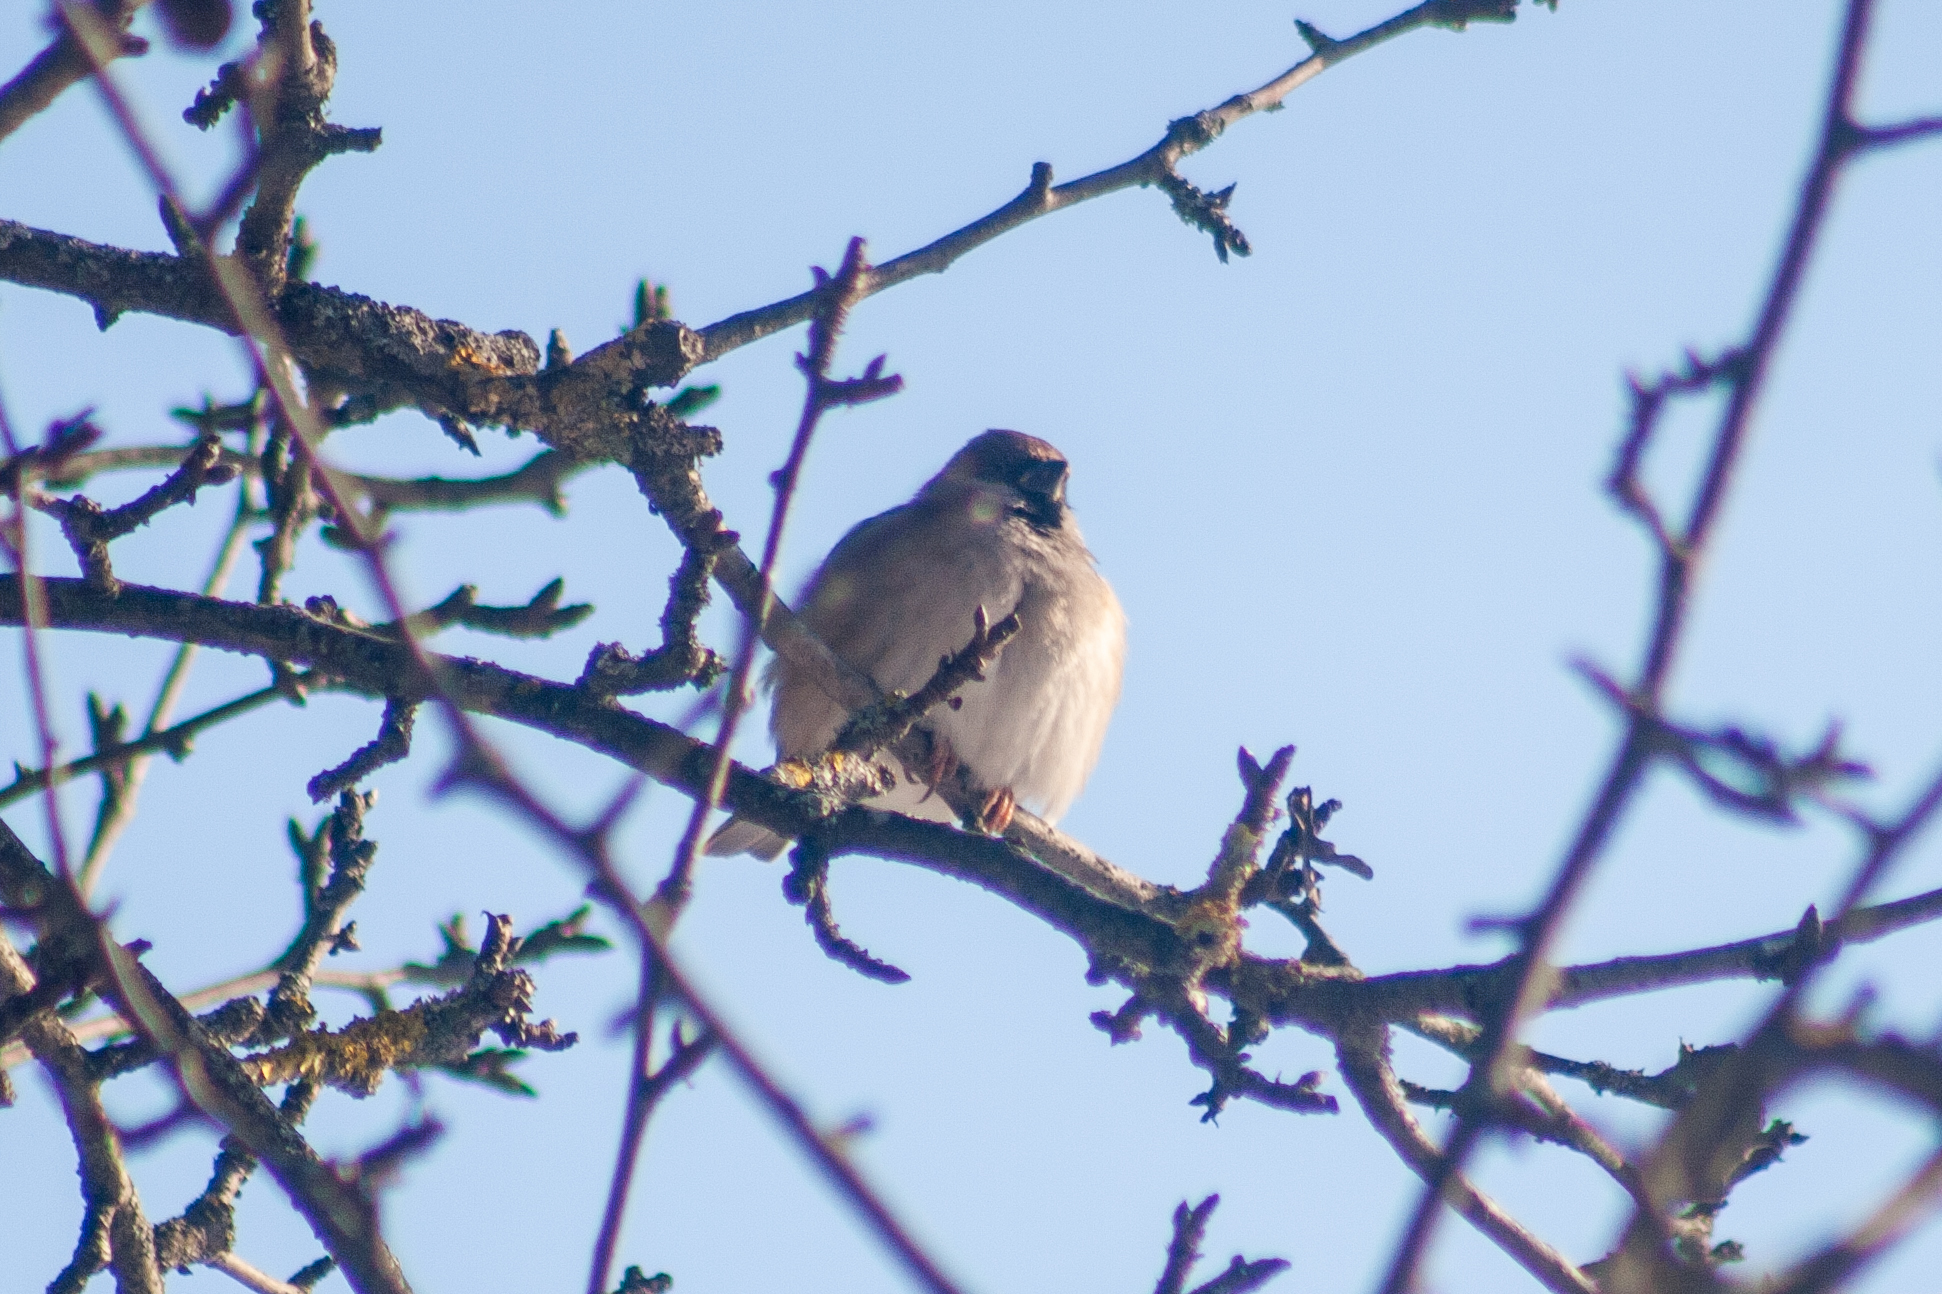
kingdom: Animalia
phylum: Chordata
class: Aves
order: Passeriformes
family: Passeridae
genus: Passer
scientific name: Passer montanus
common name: Eurasian tree sparrow
